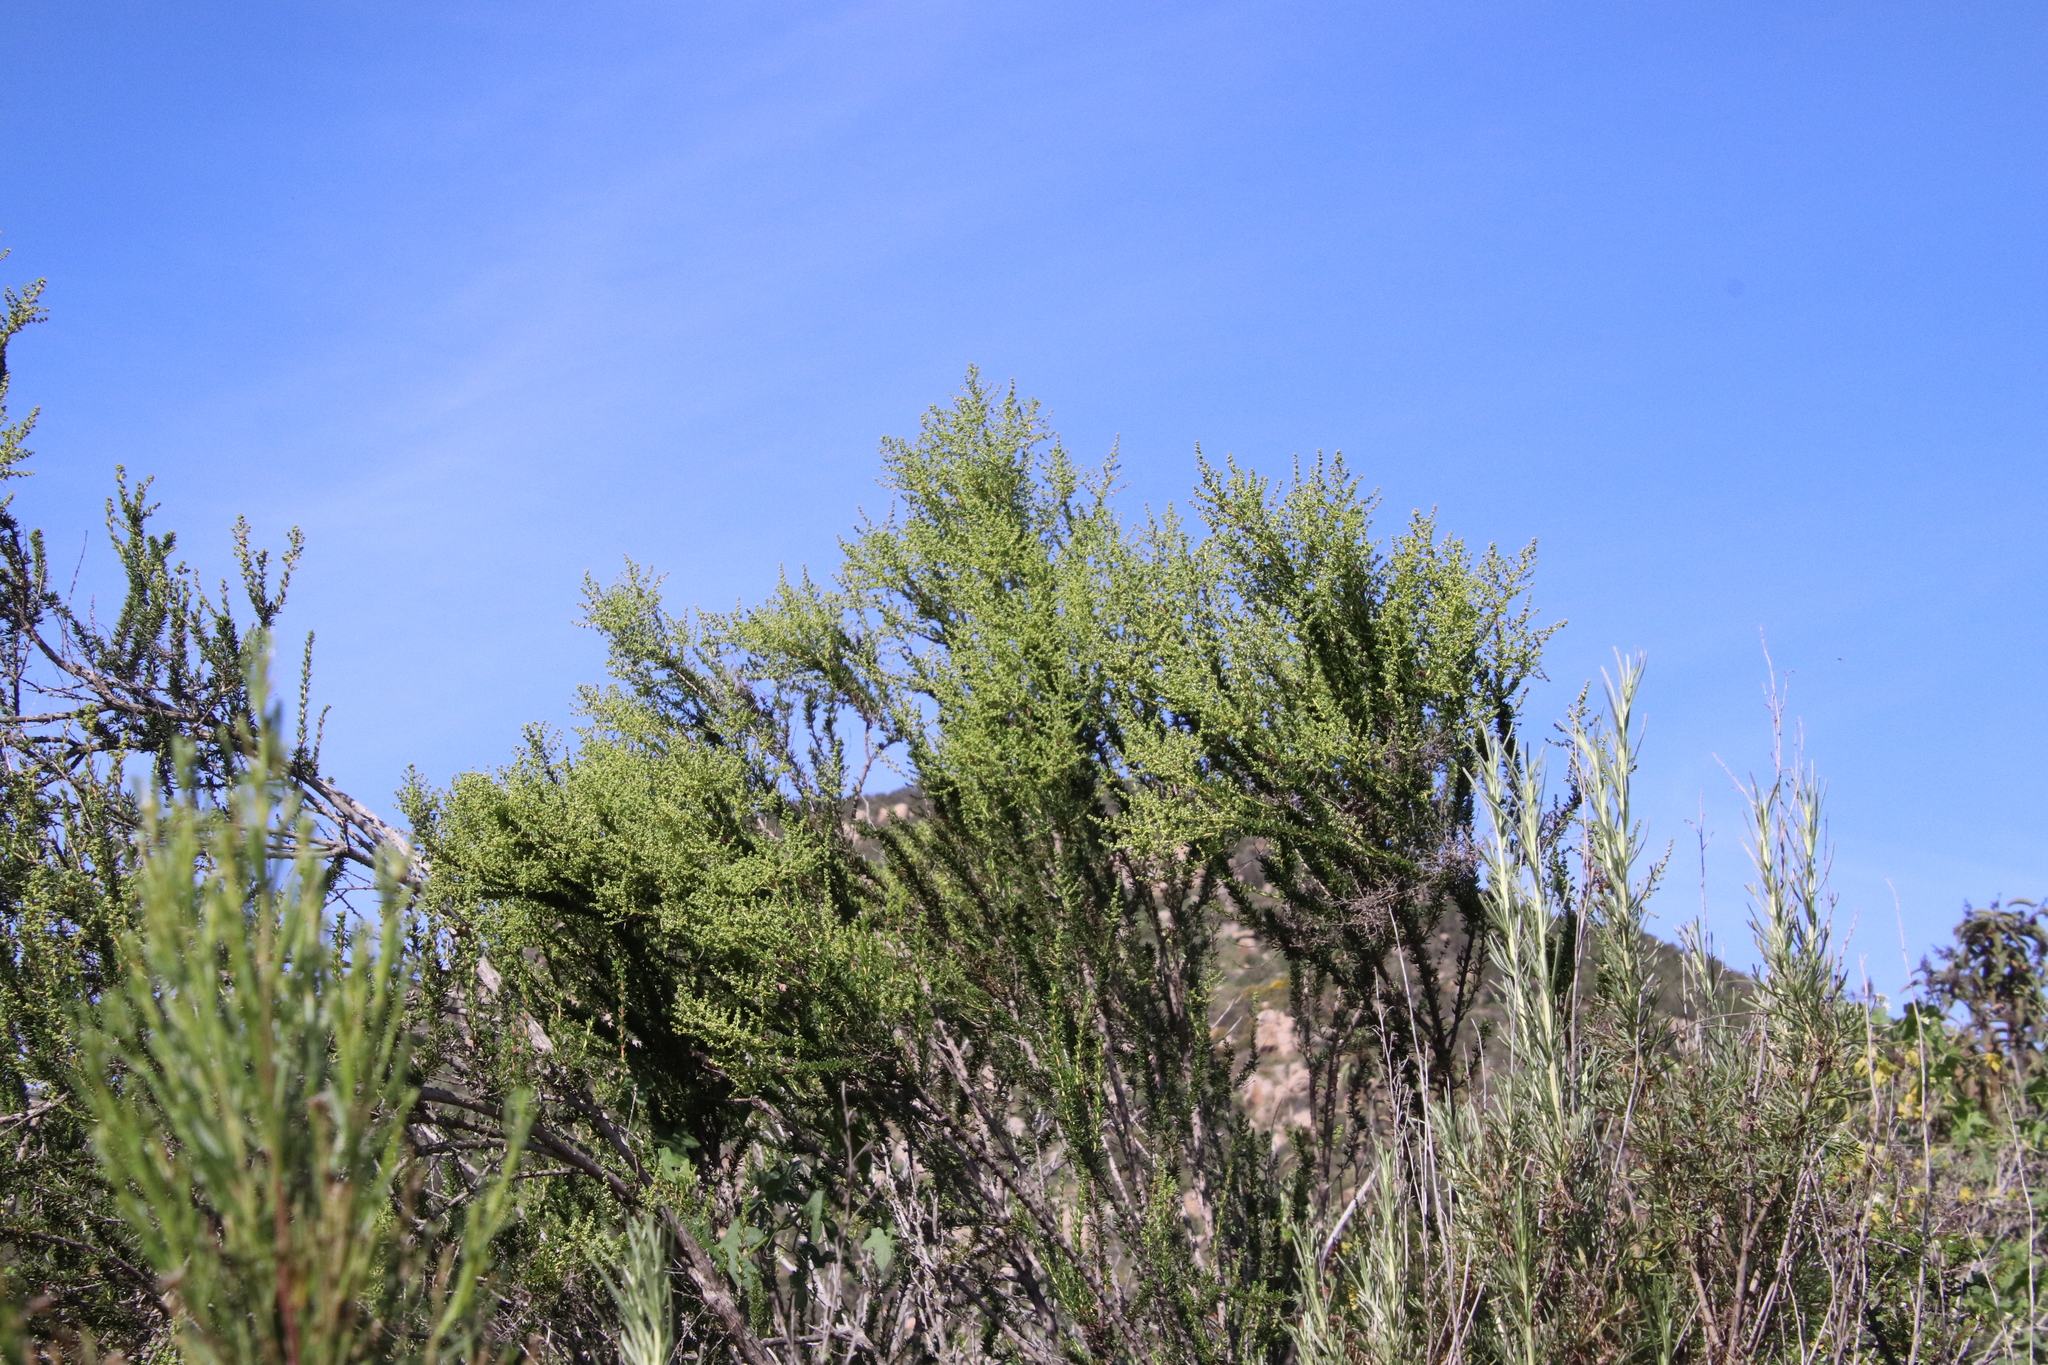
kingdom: Plantae
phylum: Tracheophyta
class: Magnoliopsida
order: Rosales
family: Rosaceae
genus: Adenostoma
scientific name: Adenostoma fasciculatum
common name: Chamise
